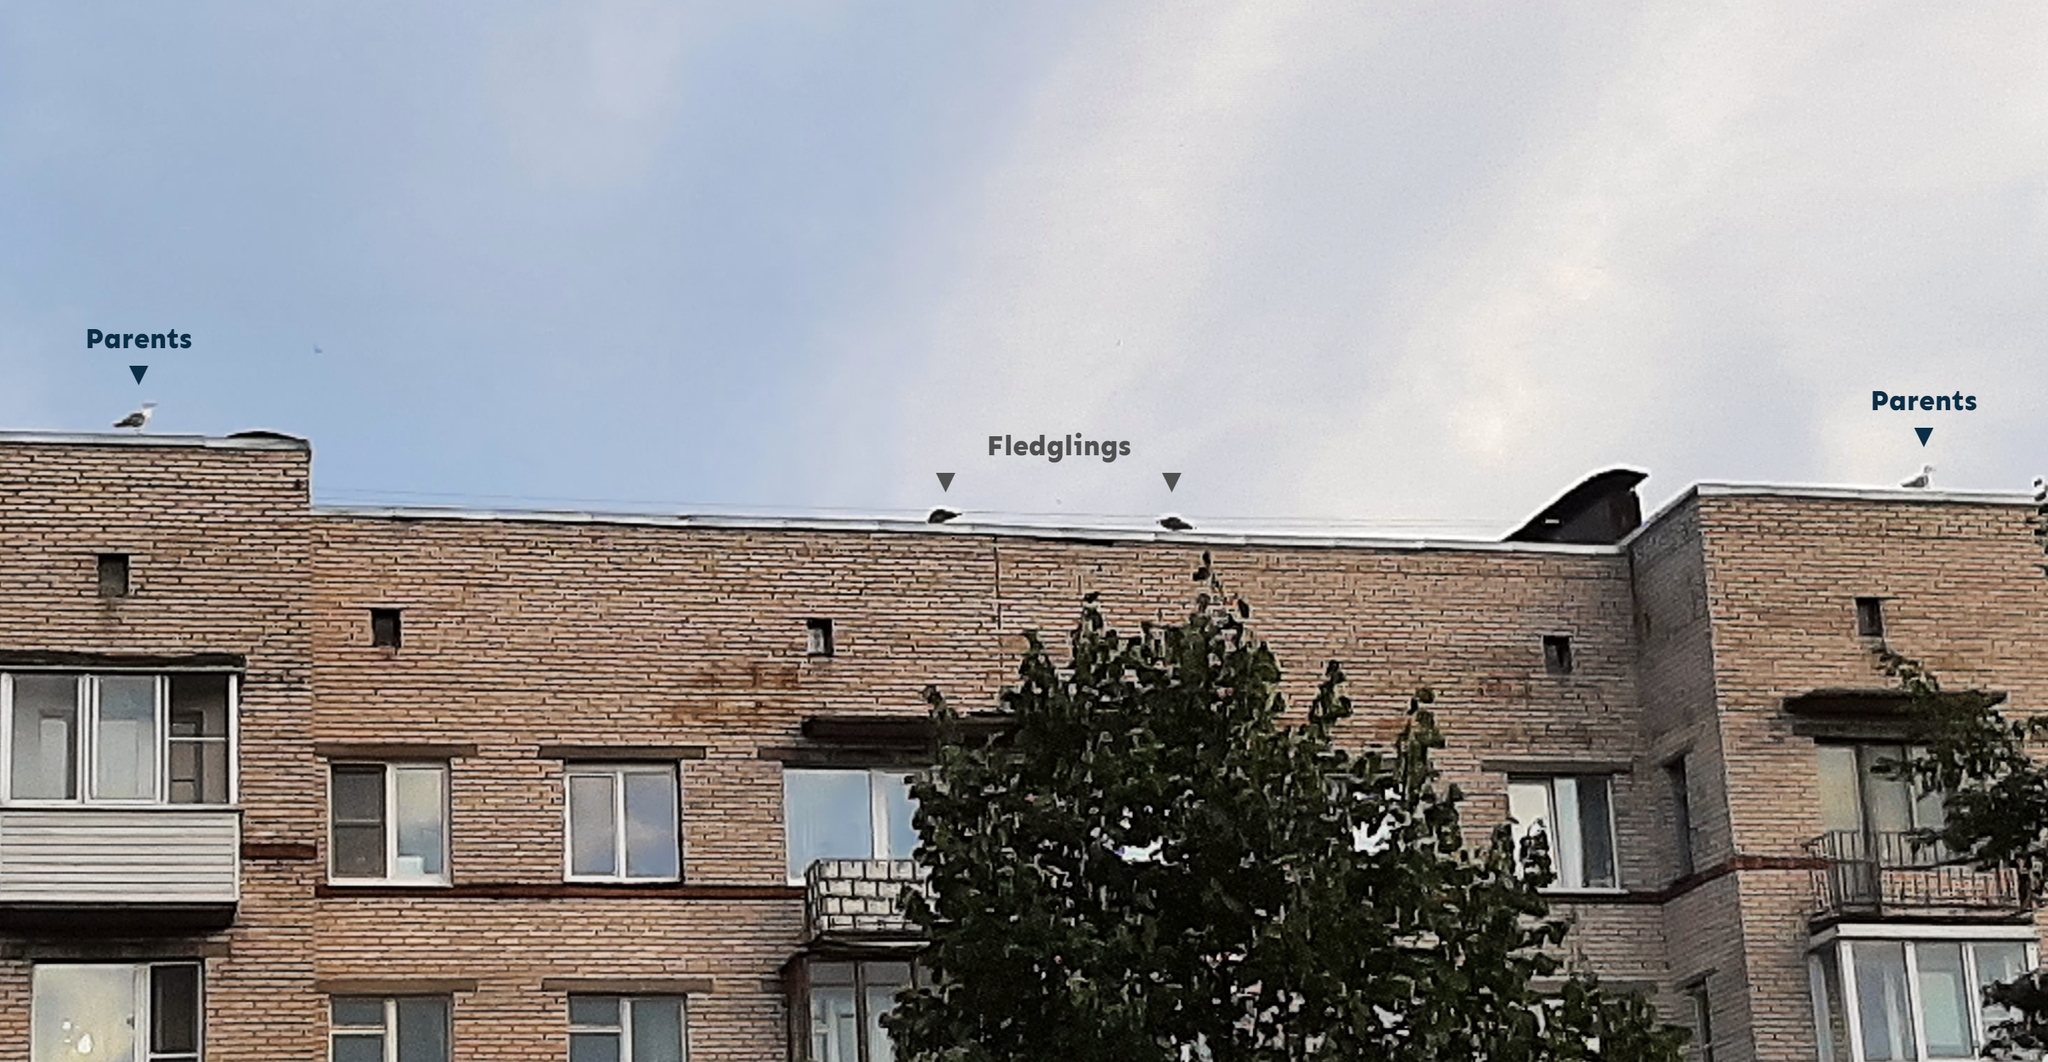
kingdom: Animalia
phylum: Chordata
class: Aves
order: Charadriiformes
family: Laridae
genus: Larus
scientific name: Larus argentatus
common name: Herring gull
